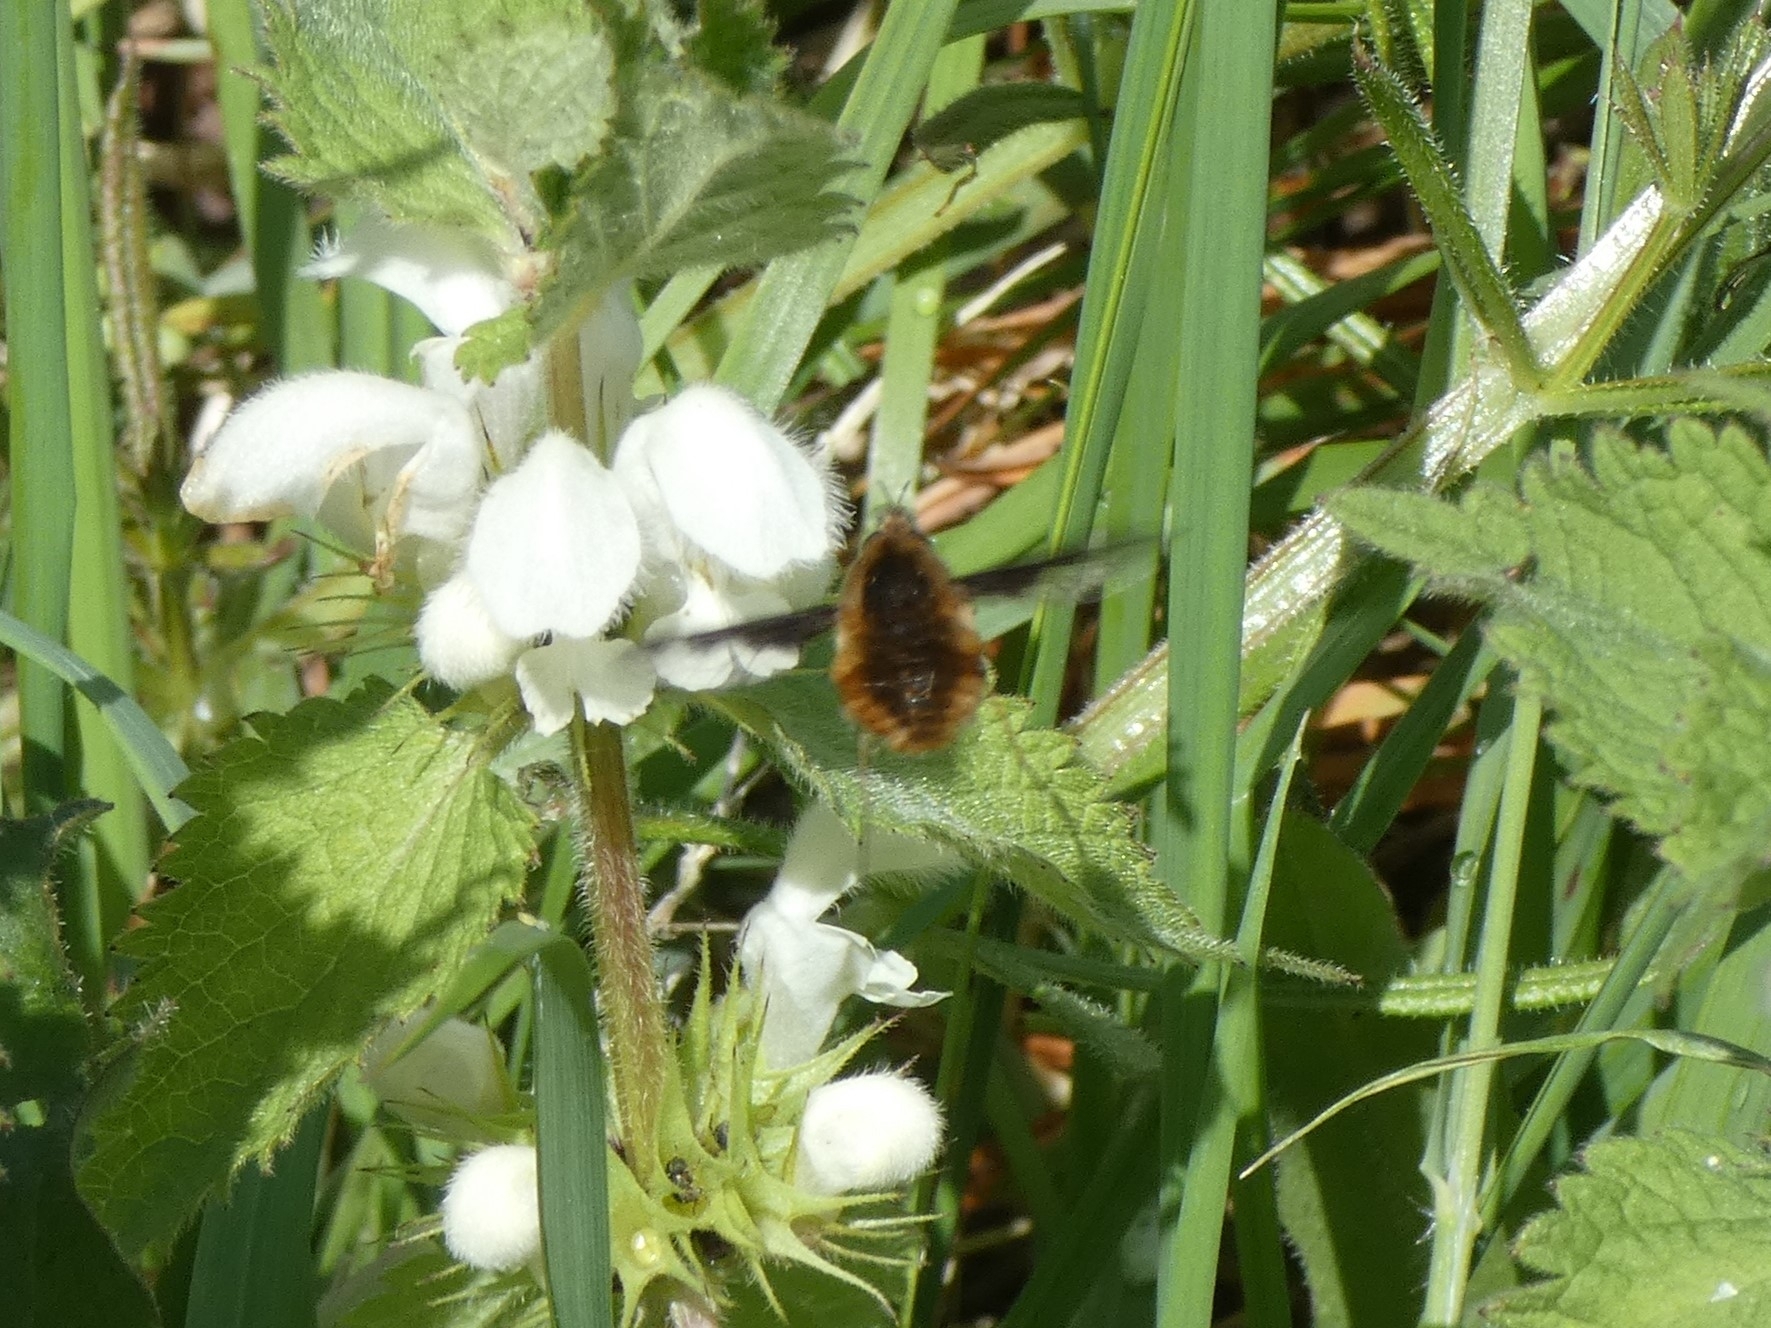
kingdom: Animalia
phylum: Arthropoda
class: Insecta
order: Diptera
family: Bombyliidae
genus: Bombylius
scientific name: Bombylius major
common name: Bee fly
